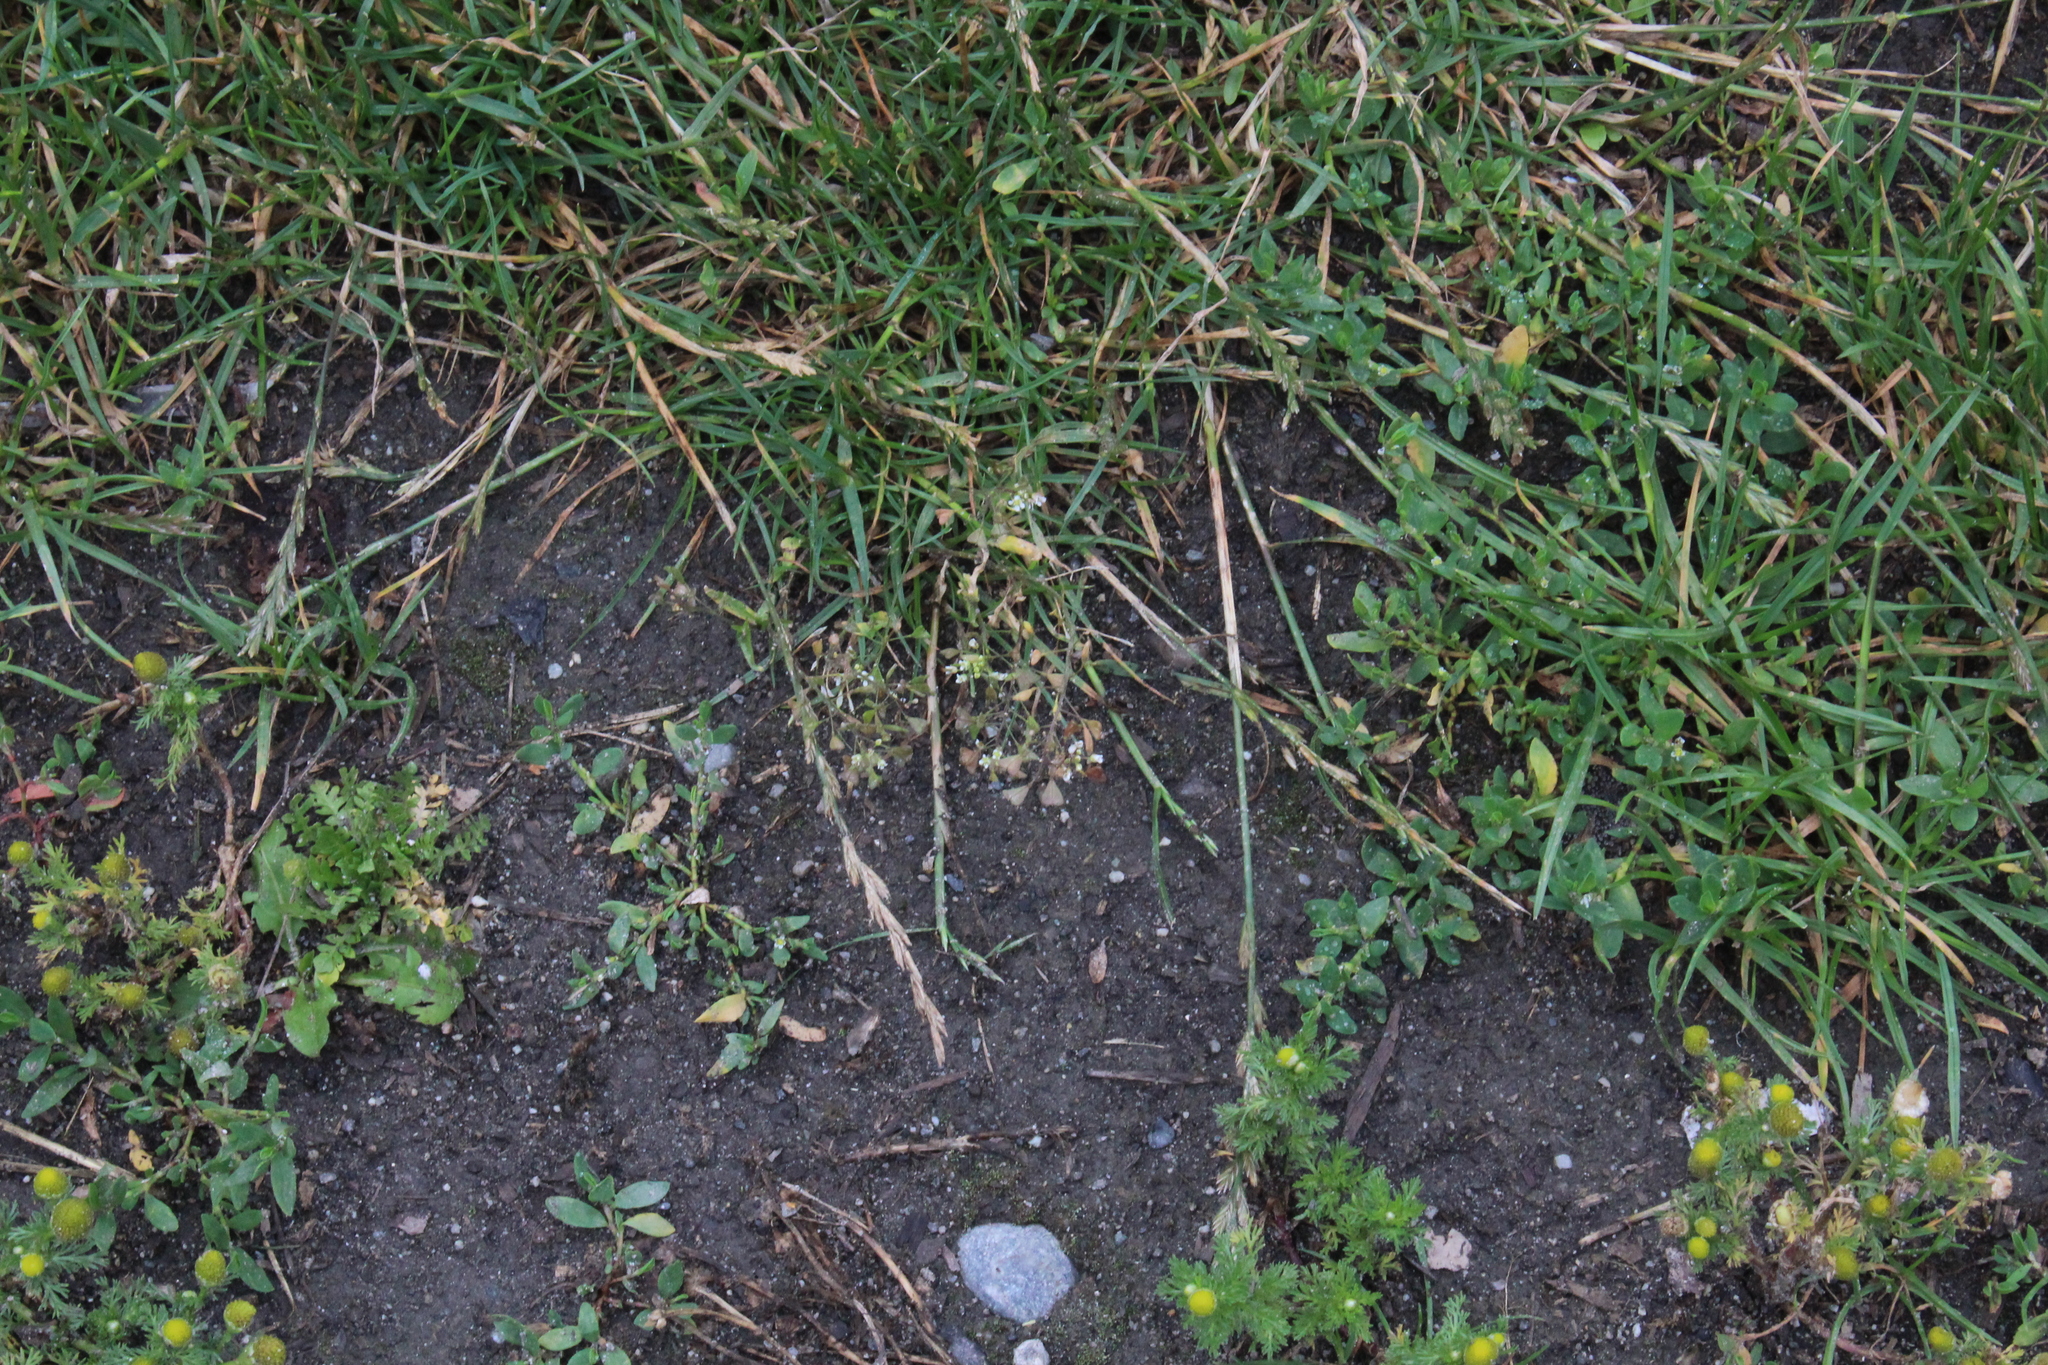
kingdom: Plantae
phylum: Tracheophyta
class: Magnoliopsida
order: Brassicales
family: Brassicaceae
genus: Capsella
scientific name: Capsella bursa-pastoris
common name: Shepherd's purse
